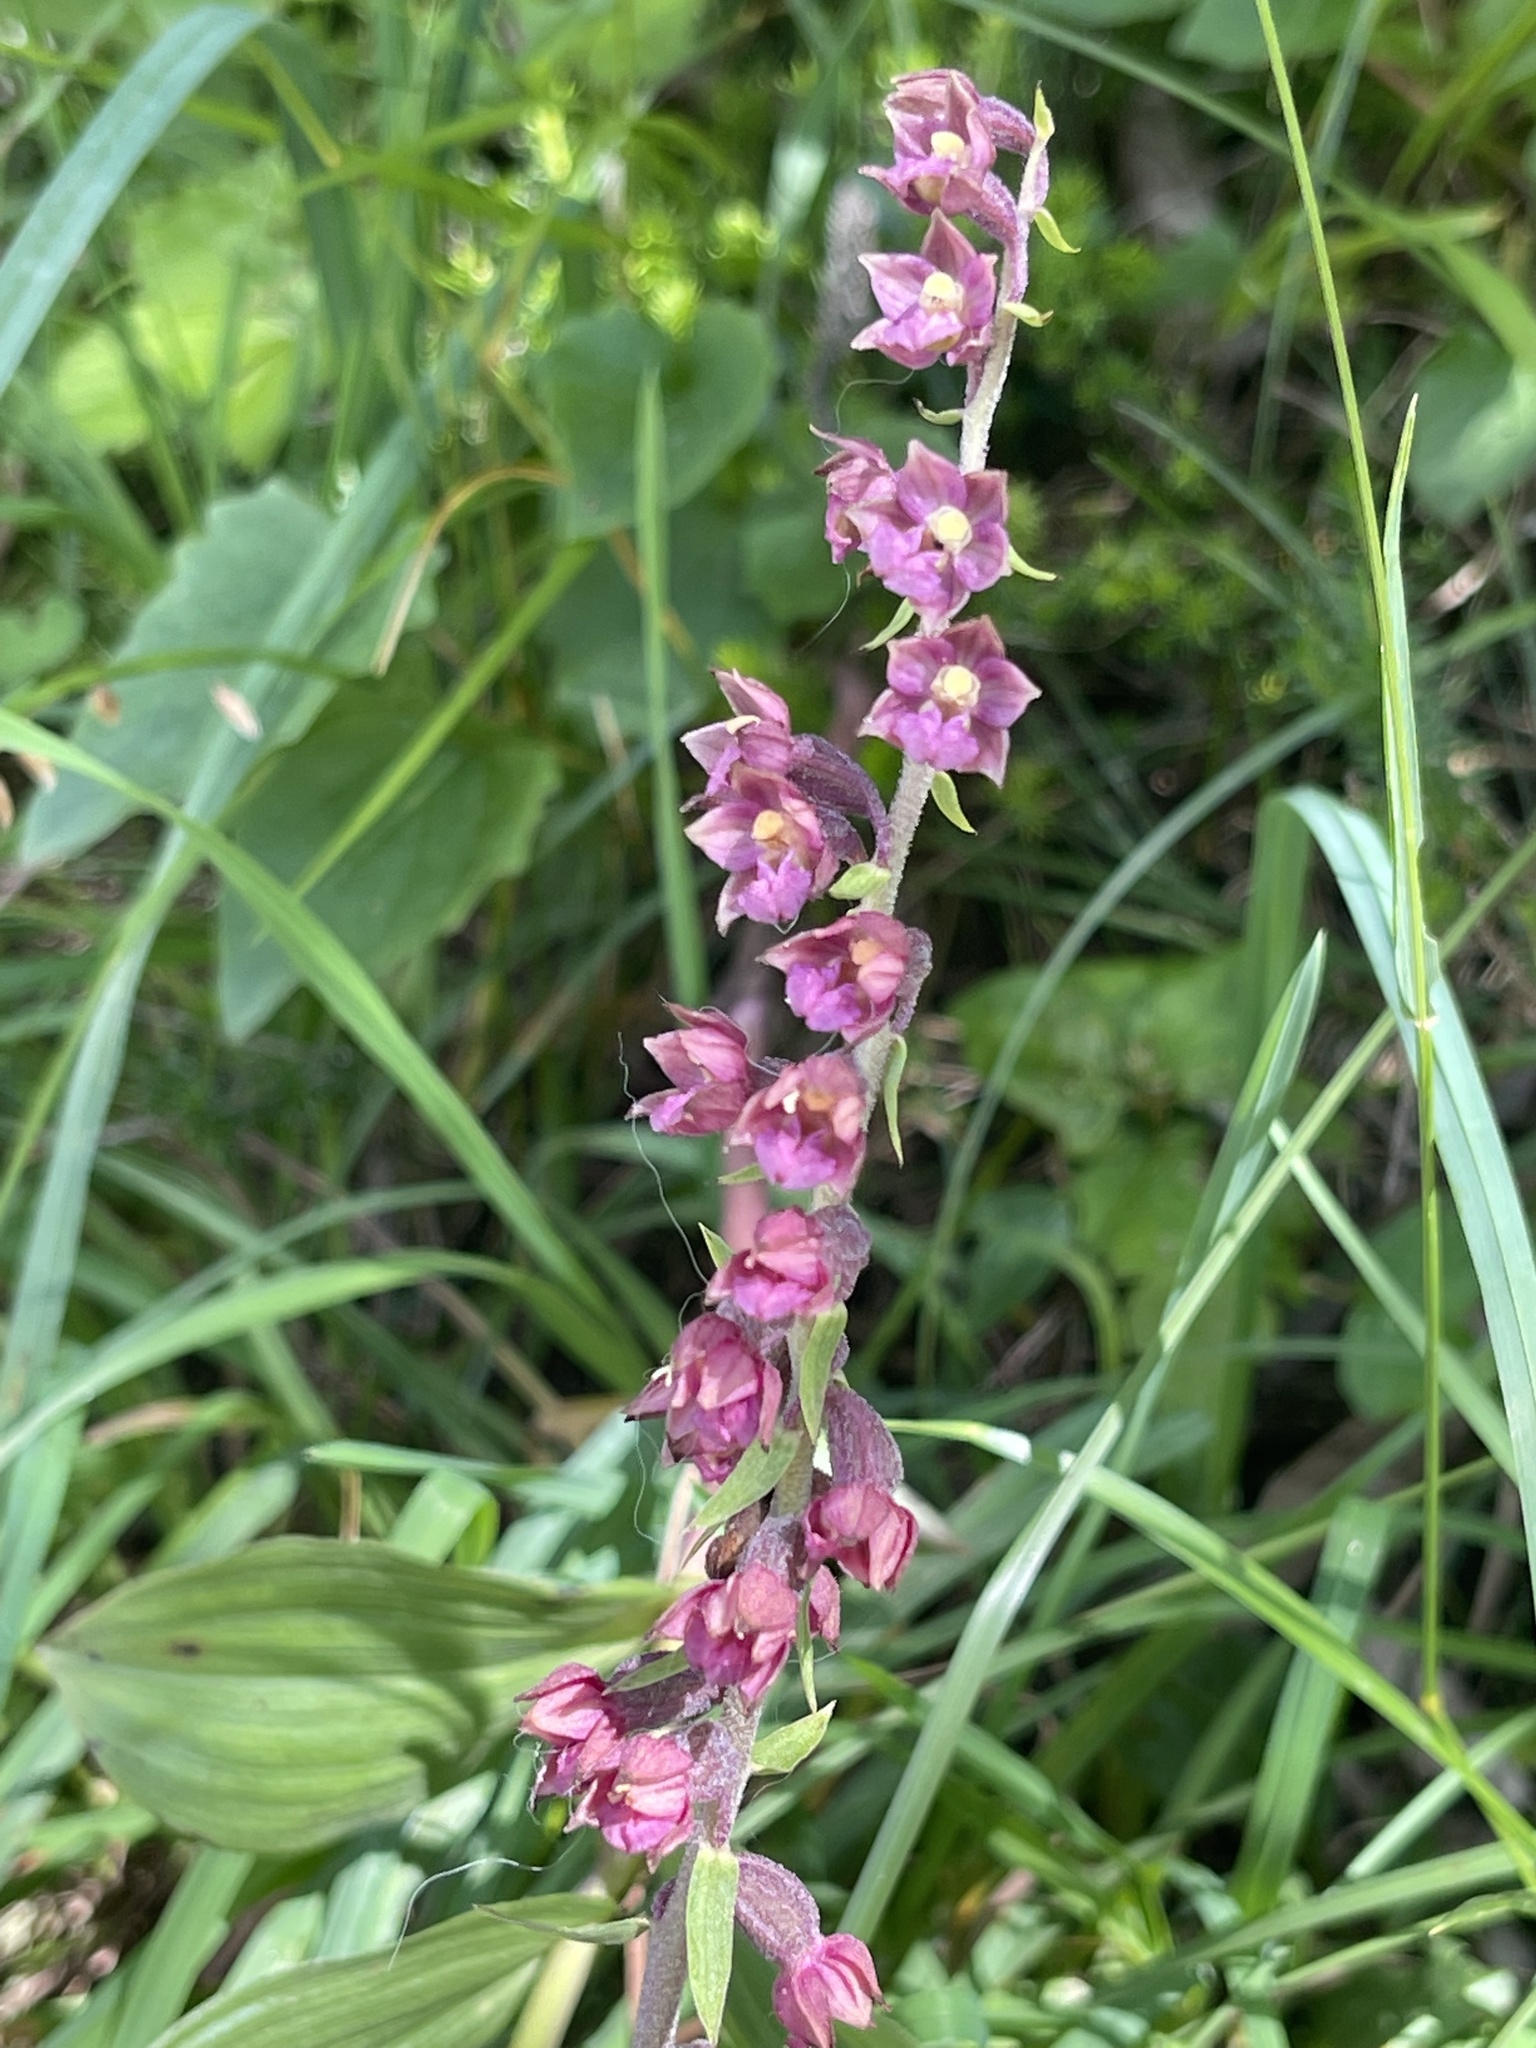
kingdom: Plantae
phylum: Tracheophyta
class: Liliopsida
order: Asparagales
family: Orchidaceae
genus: Epipactis
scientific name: Epipactis atrorubens
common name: Dark-red helleborine
